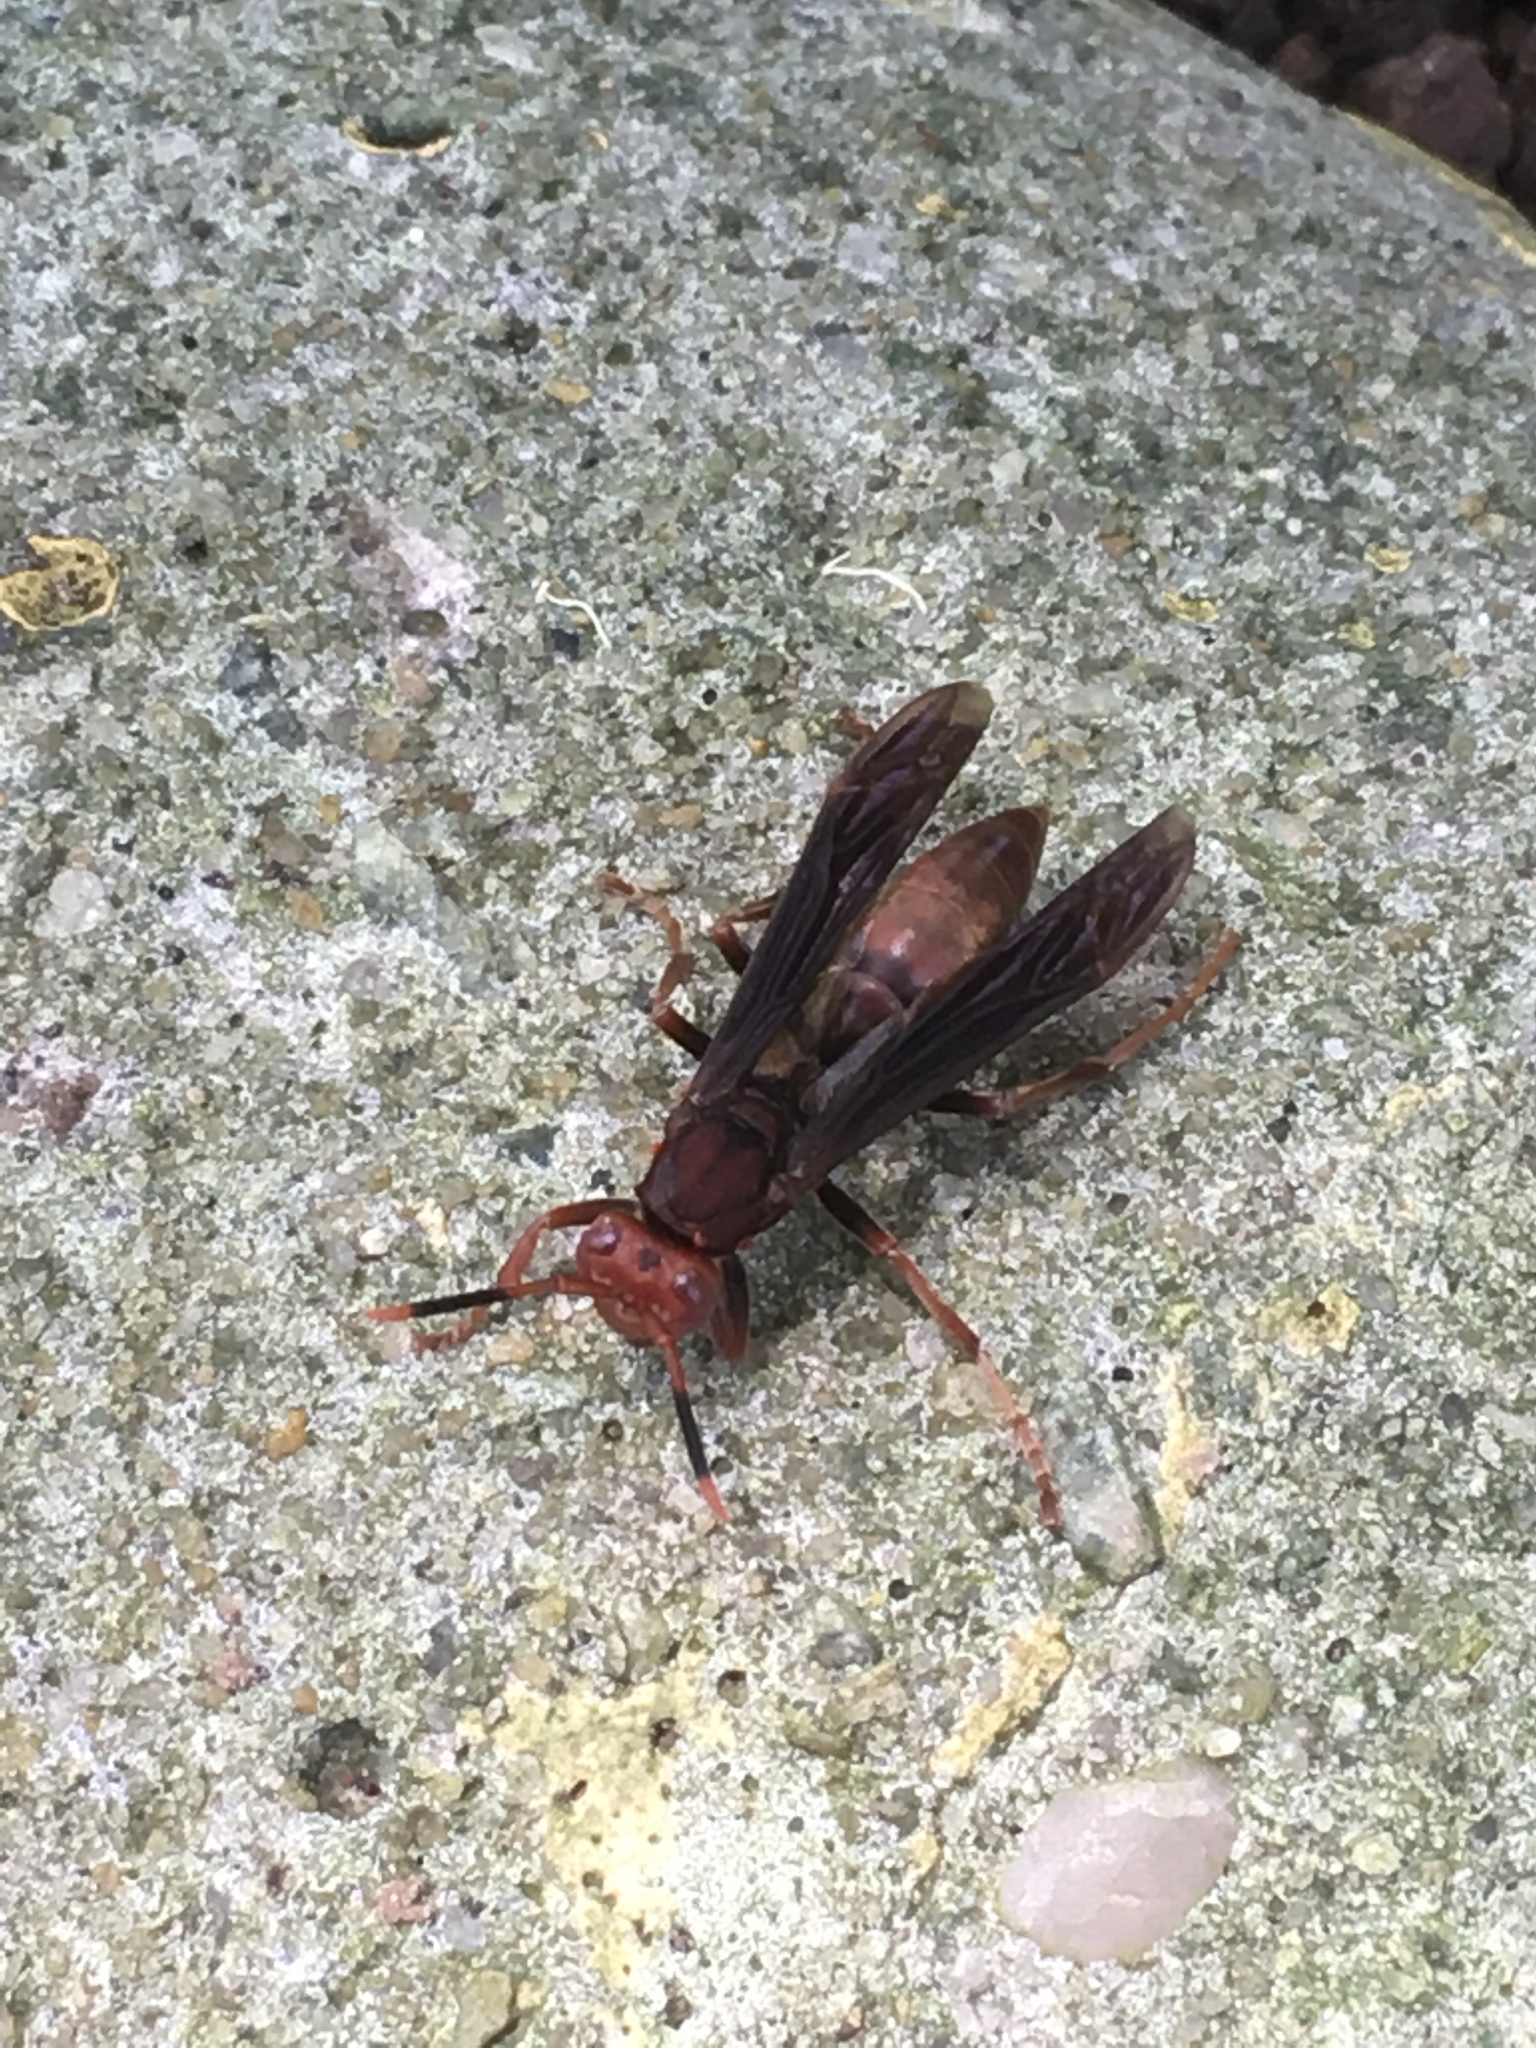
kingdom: Animalia
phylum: Arthropoda
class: Insecta
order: Hymenoptera
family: Eumenidae
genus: Polistes
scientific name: Polistes lanio
